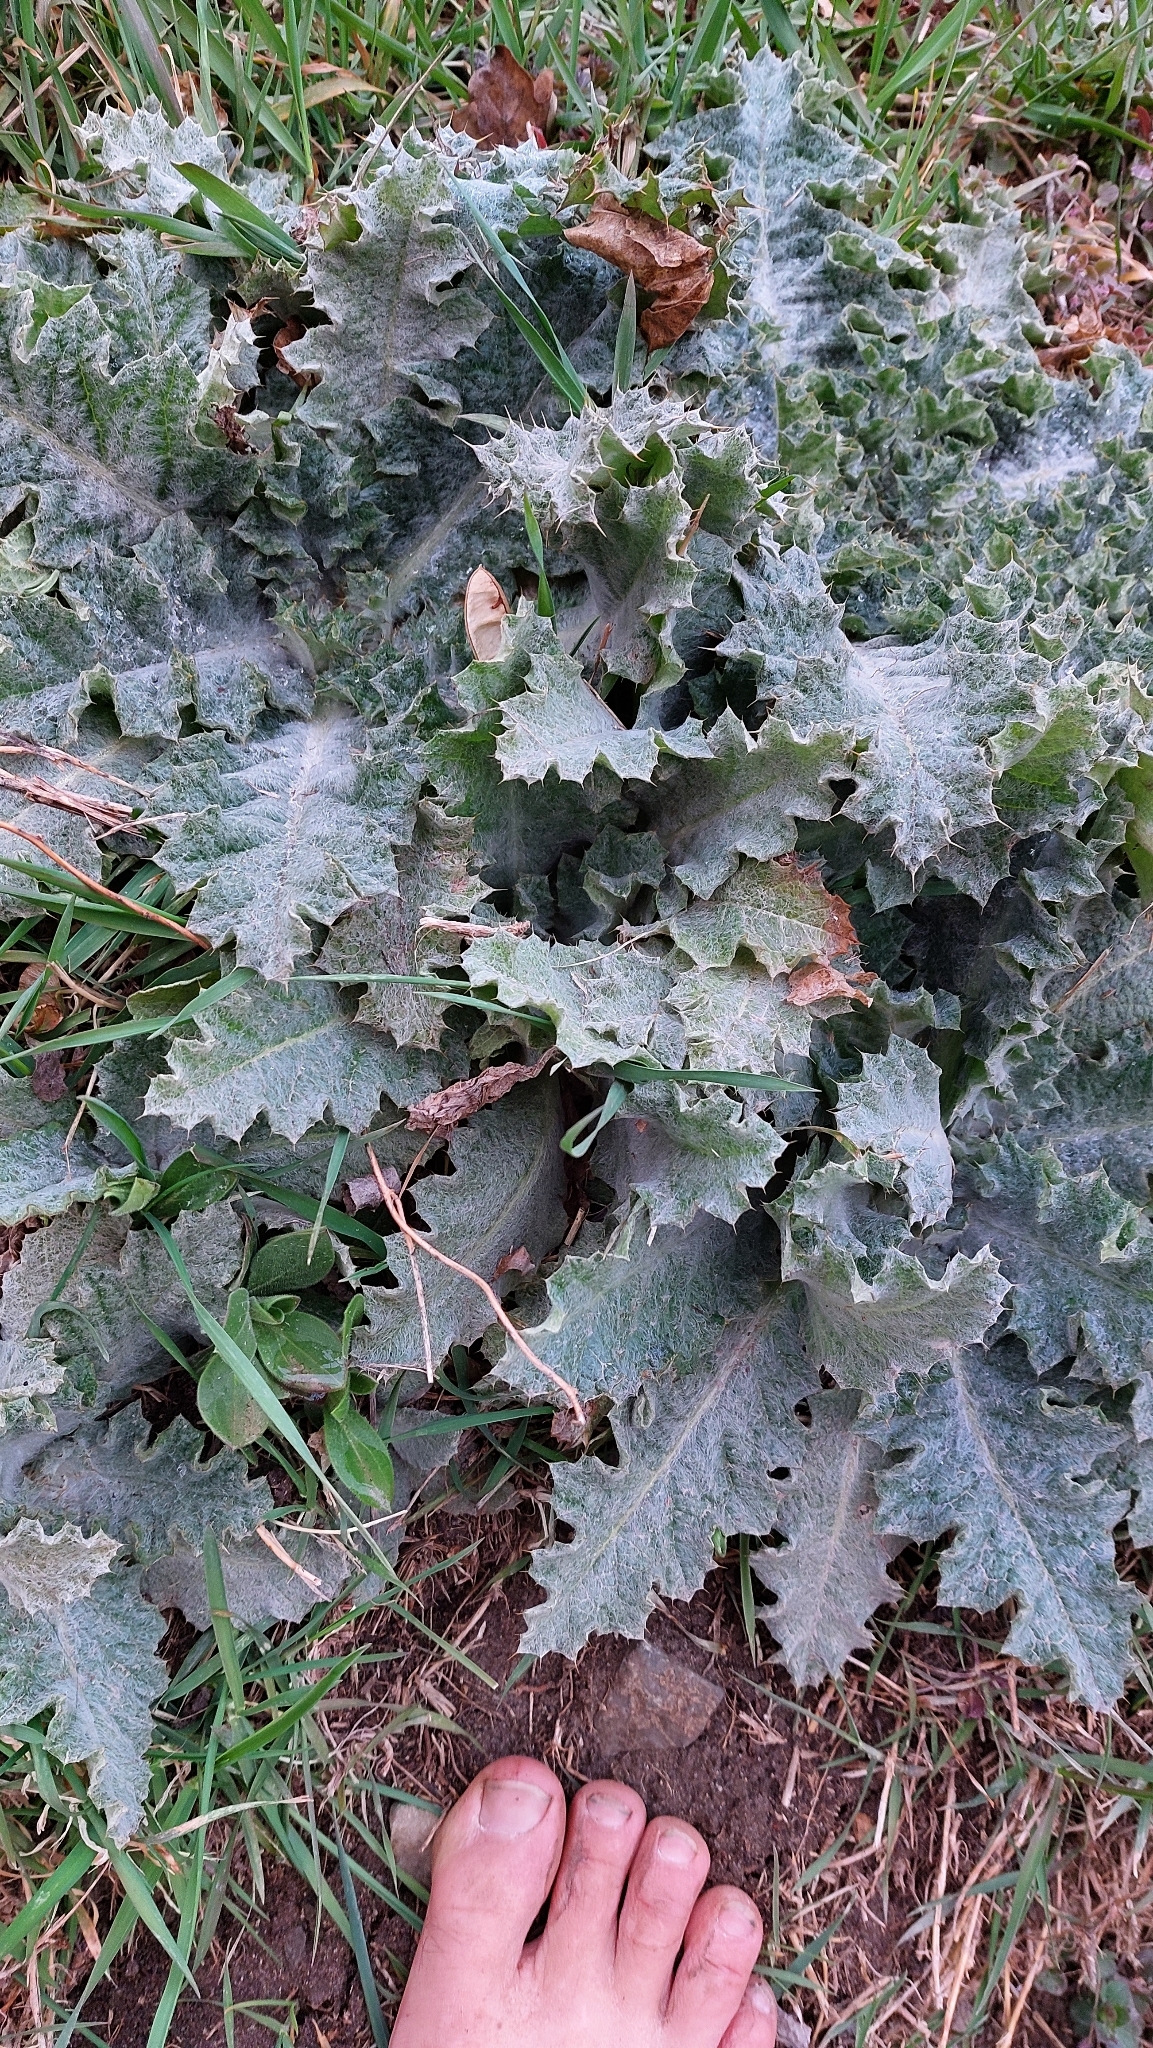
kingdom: Plantae
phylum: Tracheophyta
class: Magnoliopsida
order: Asterales
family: Asteraceae
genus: Onopordum
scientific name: Onopordum acanthium
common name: Scotch thistle
